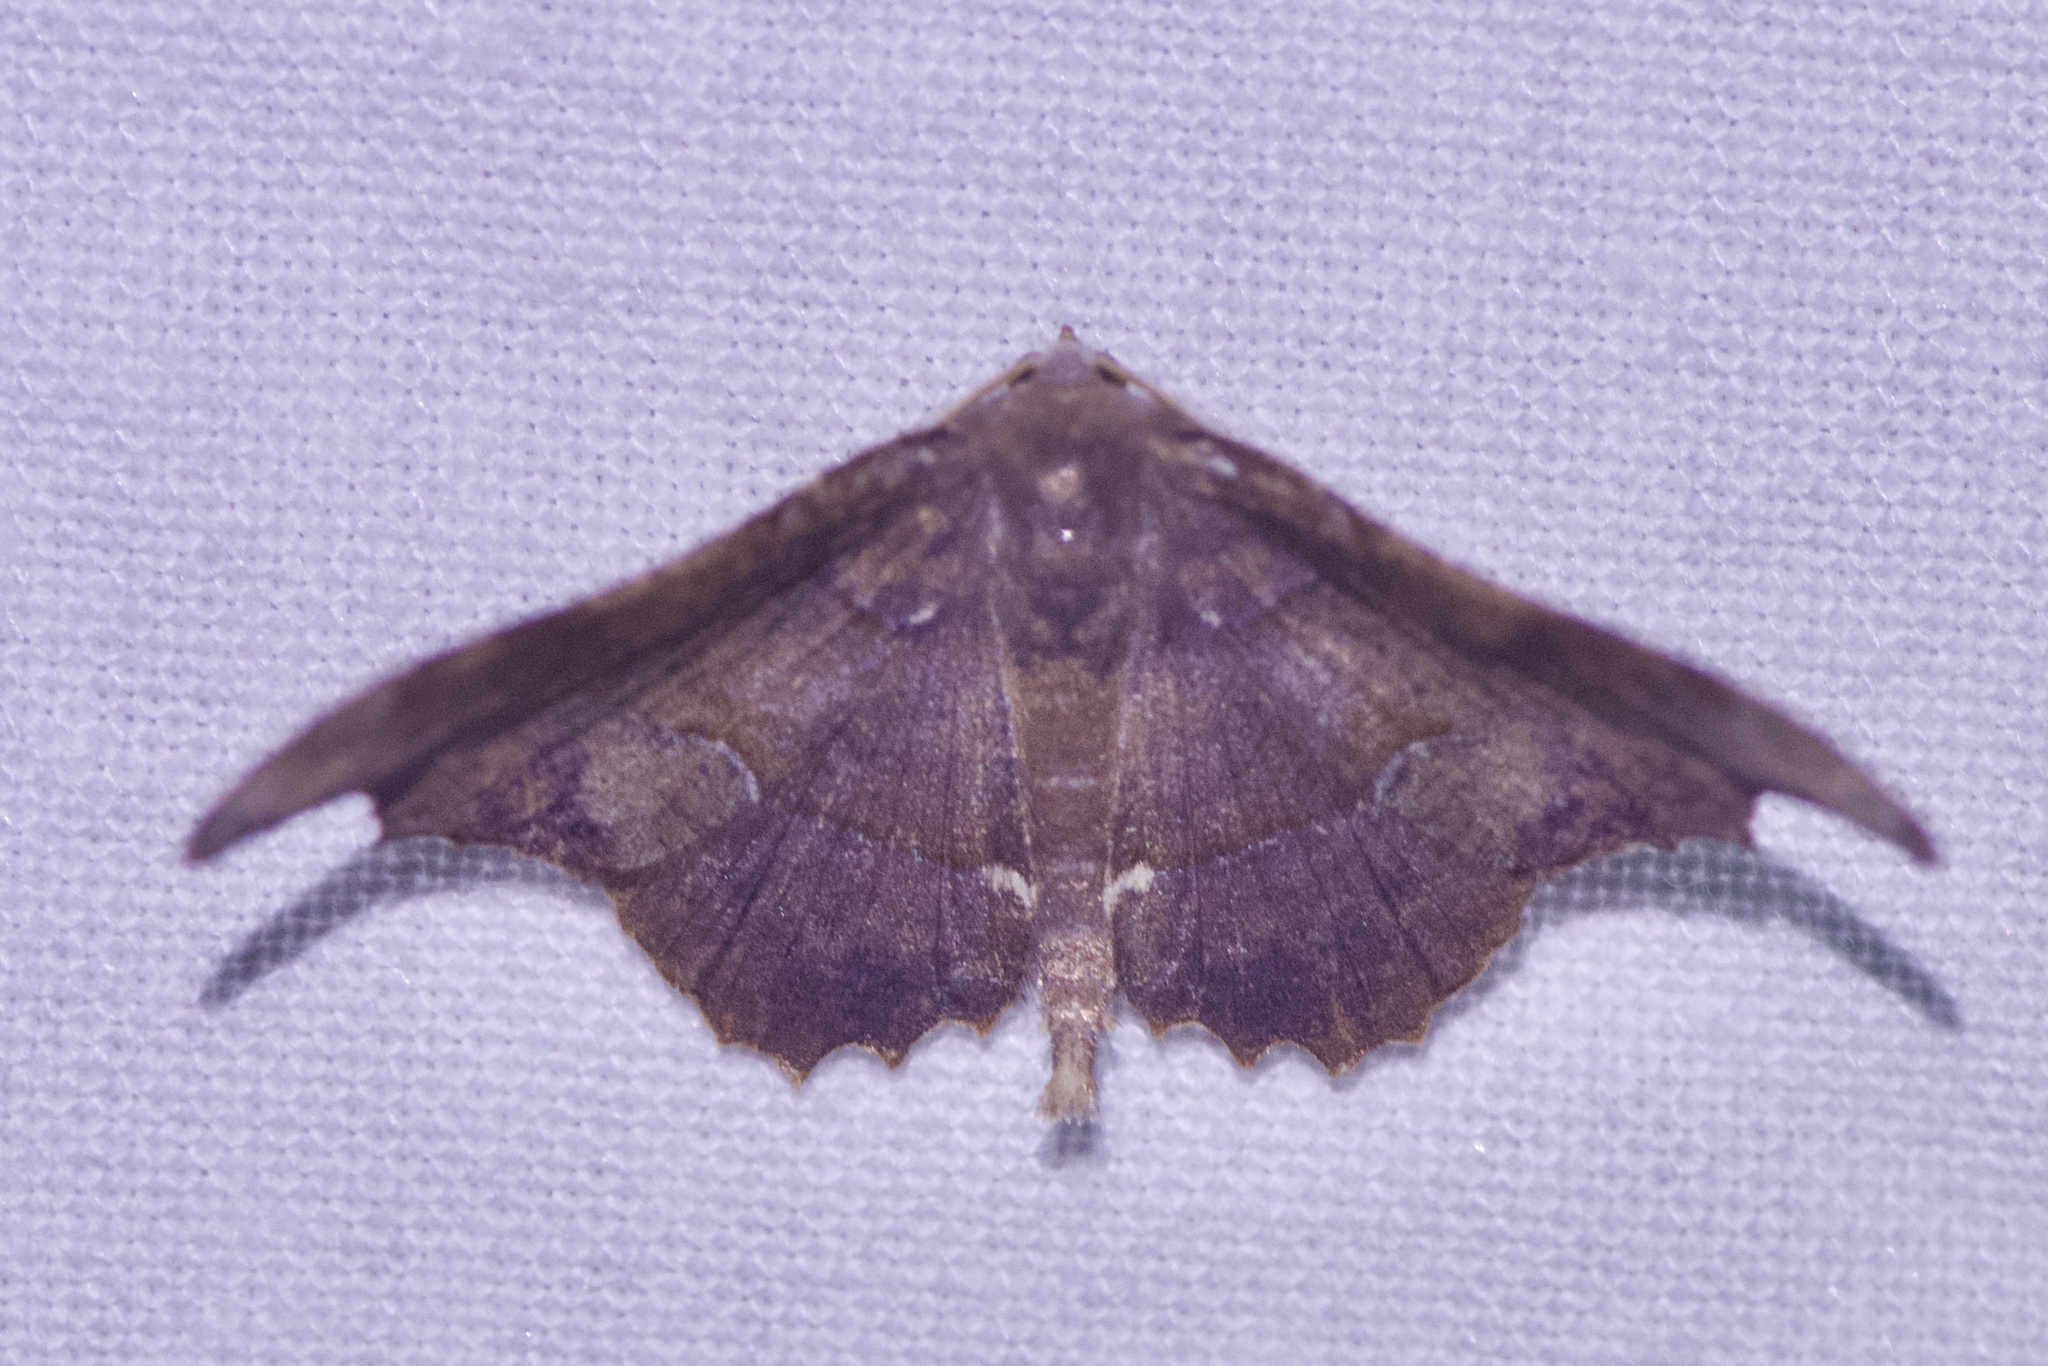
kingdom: Animalia
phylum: Arthropoda
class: Insecta
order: Lepidoptera
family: Geometridae
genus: Patalene
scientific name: Patalene aenetusaria
